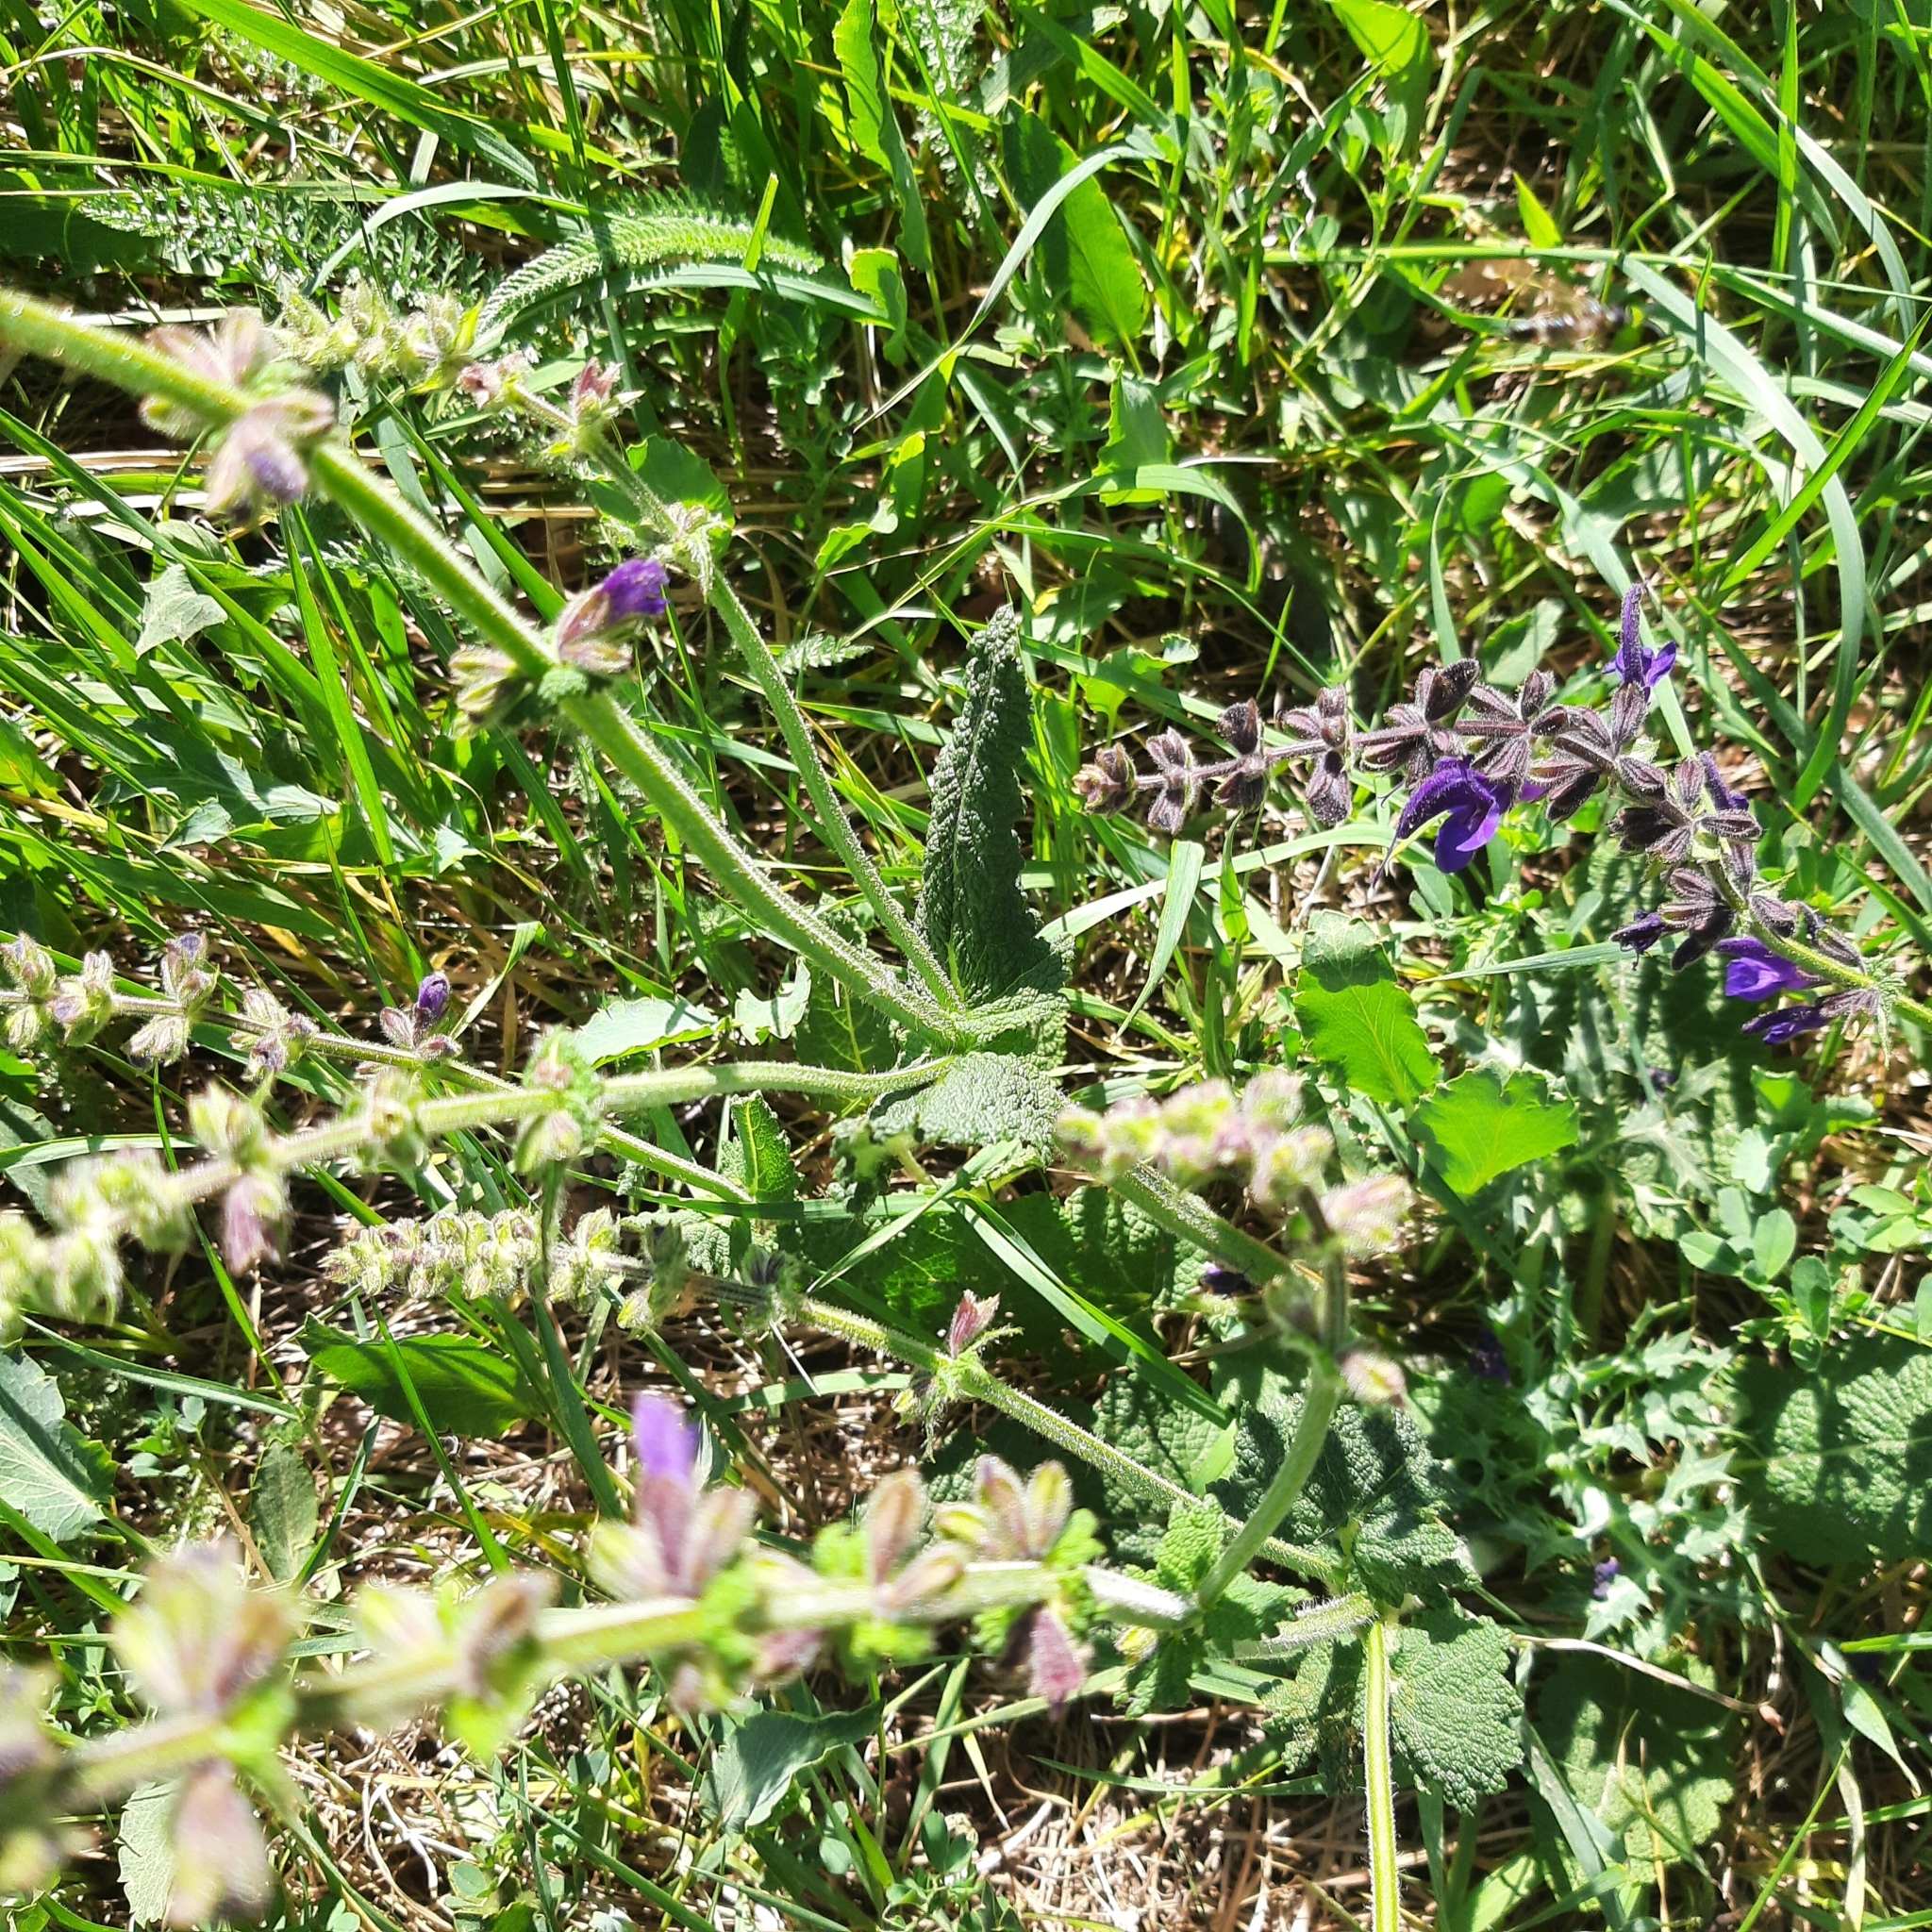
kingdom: Plantae
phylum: Tracheophyta
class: Magnoliopsida
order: Lamiales
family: Lamiaceae
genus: Salvia
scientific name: Salvia pratensis
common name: Meadow sage
